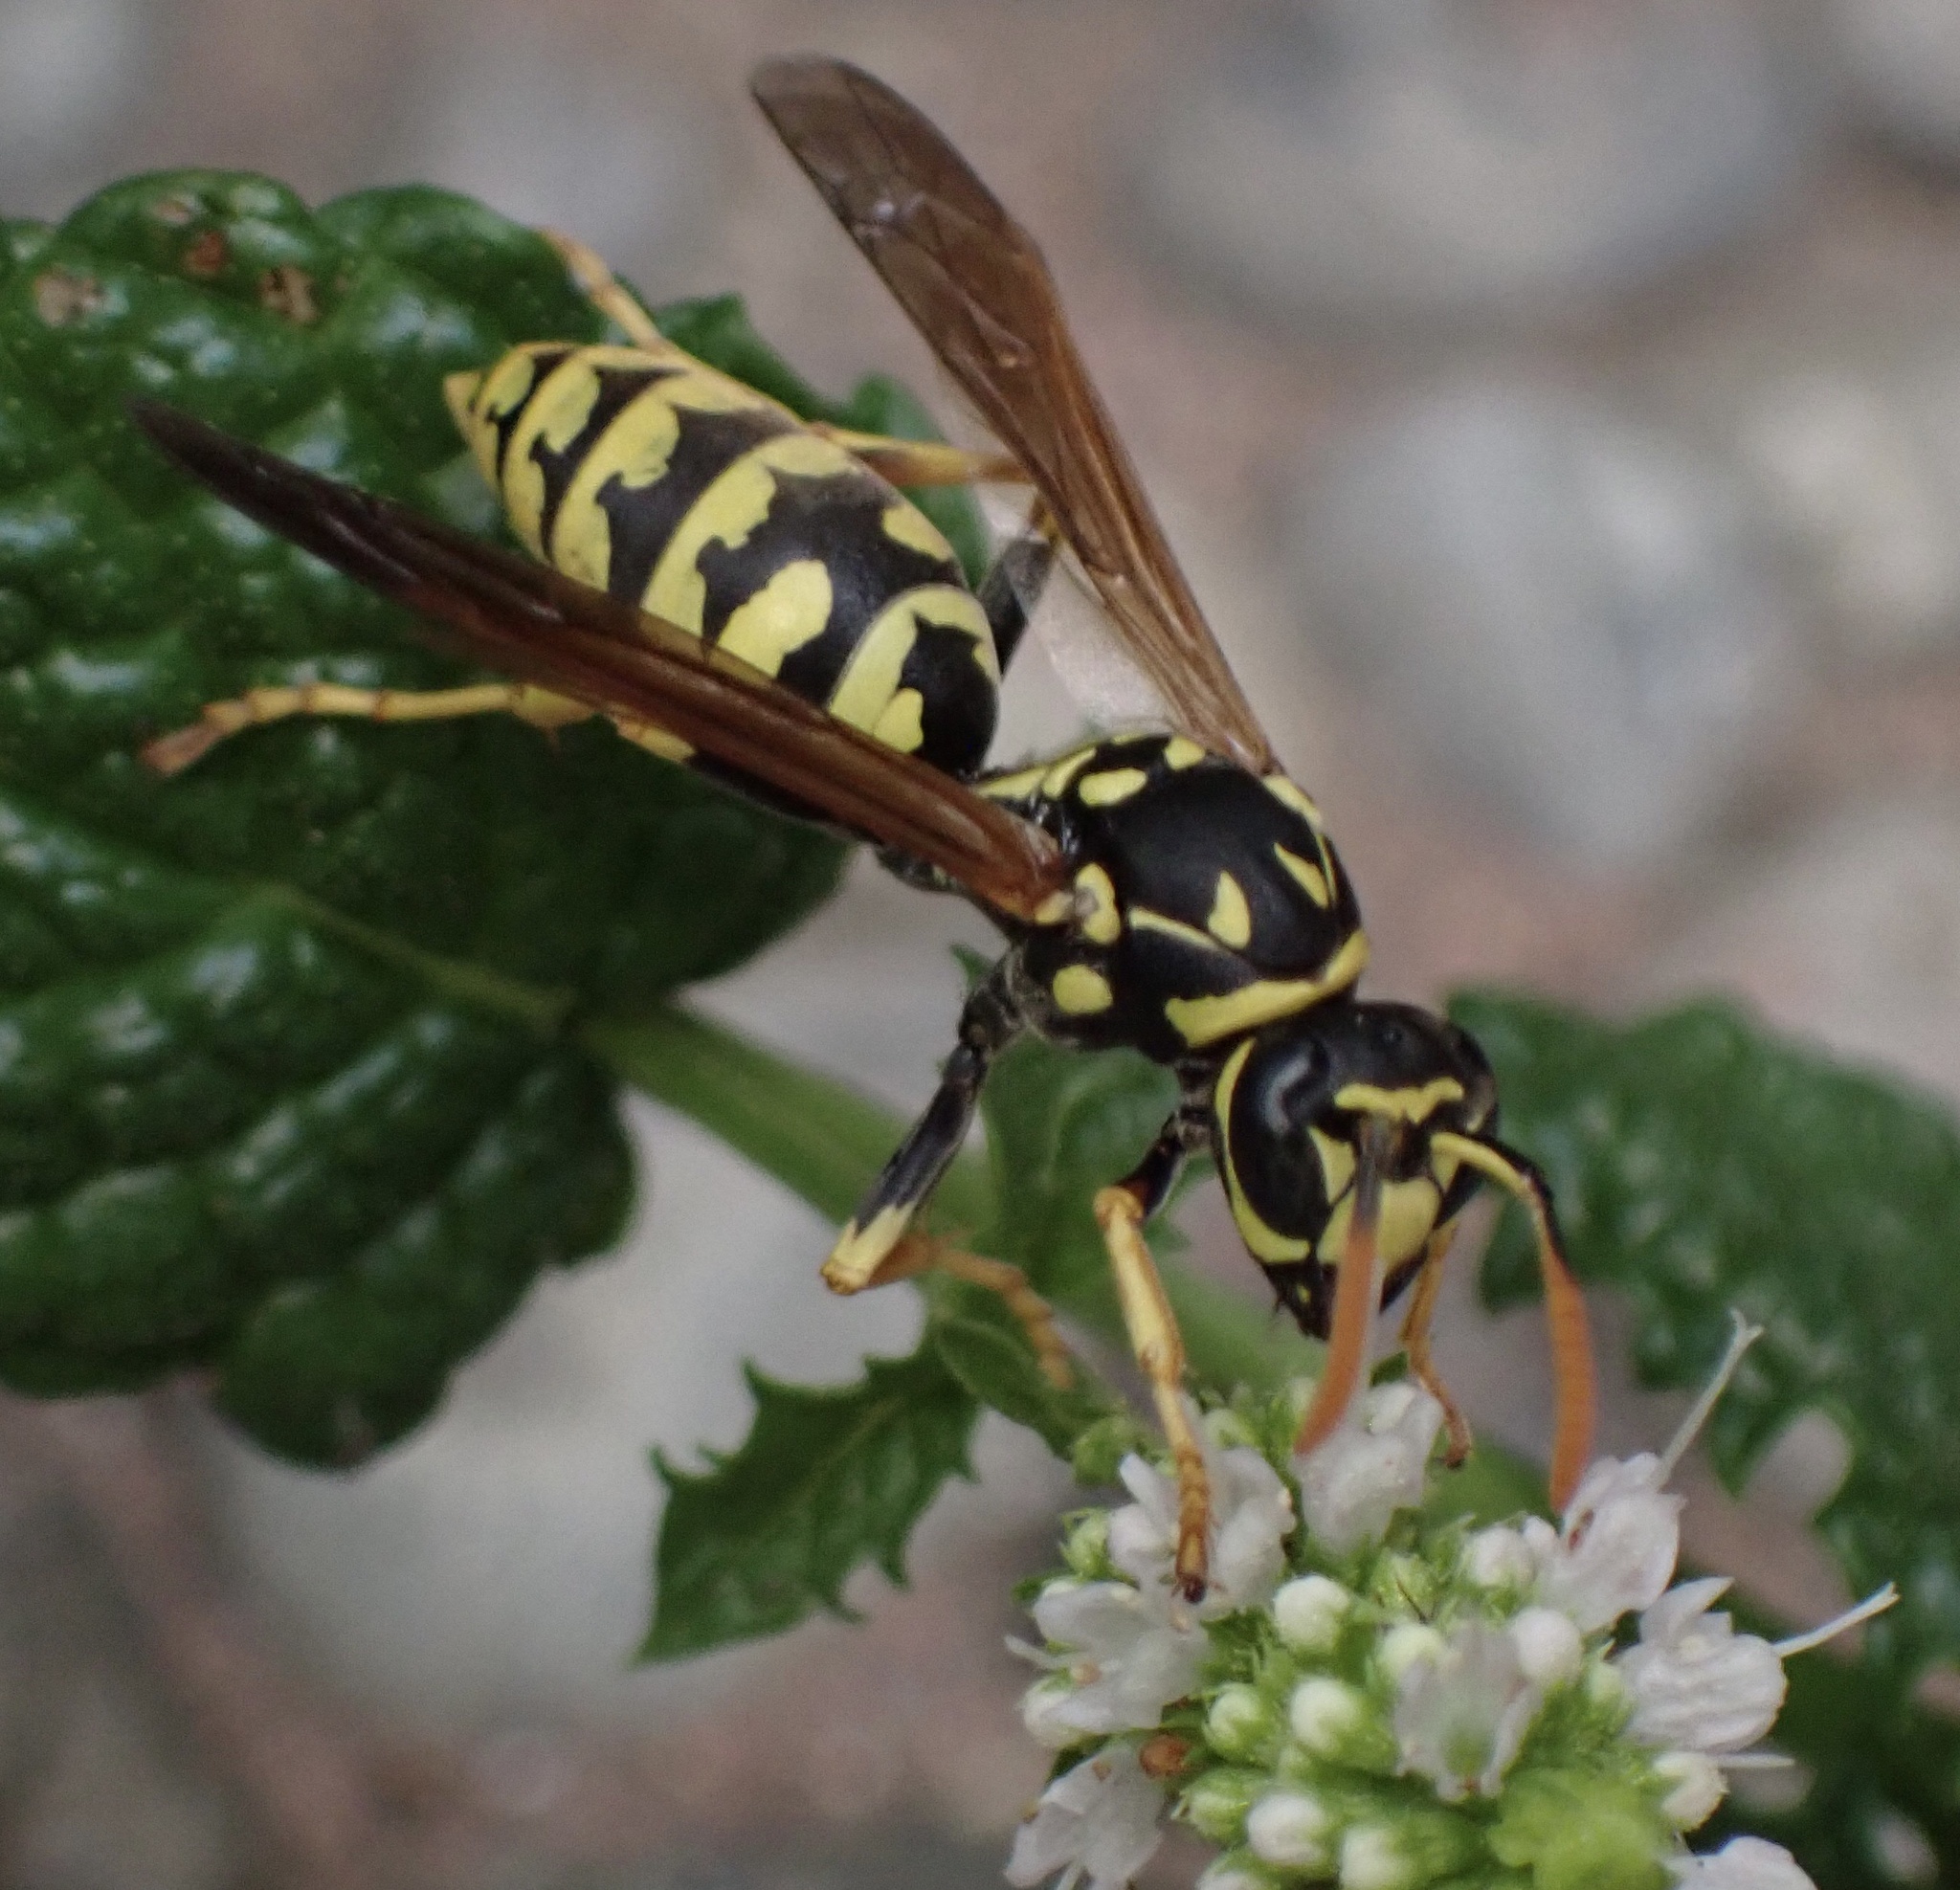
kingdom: Animalia
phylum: Arthropoda
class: Insecta
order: Hymenoptera
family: Eumenidae
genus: Polistes
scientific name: Polistes dominula
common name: Paper wasp
